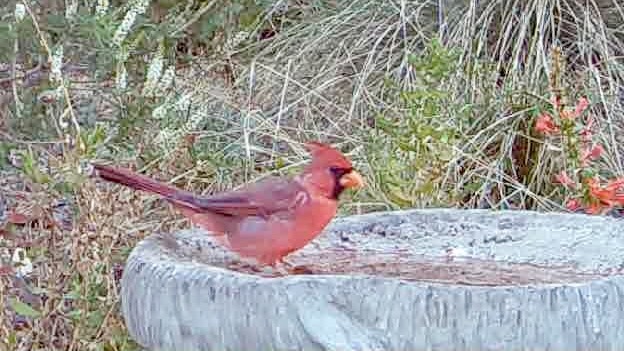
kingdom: Animalia
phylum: Chordata
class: Aves
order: Passeriformes
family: Cardinalidae
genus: Cardinalis
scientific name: Cardinalis cardinalis
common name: Northern cardinal
